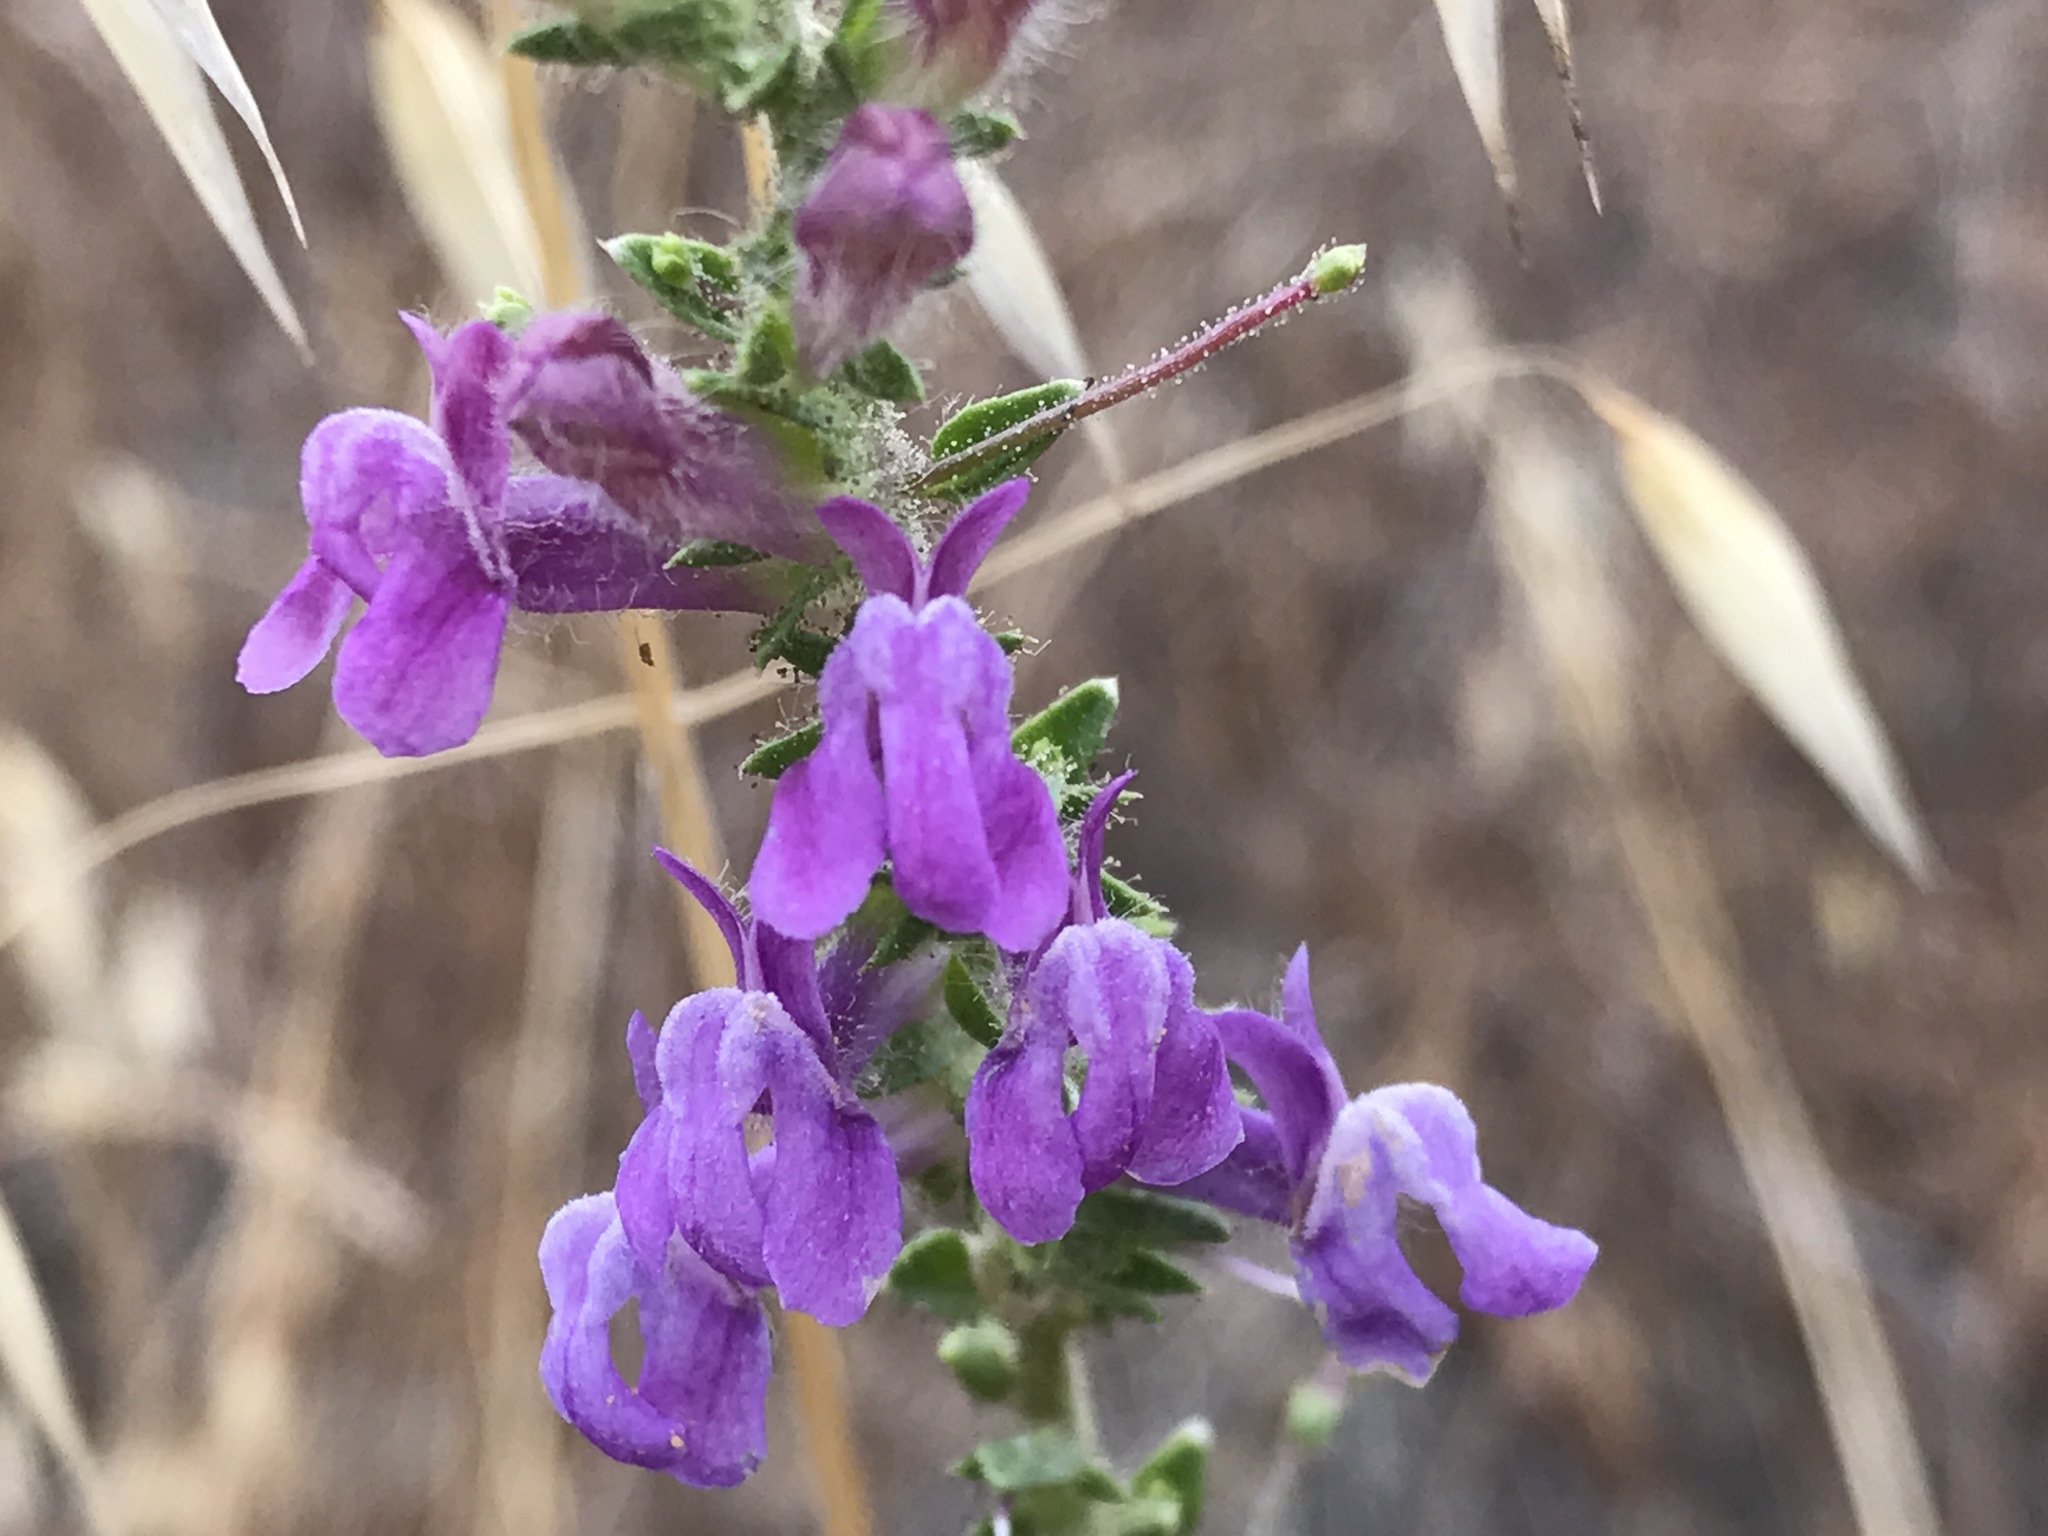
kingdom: Plantae
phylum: Tracheophyta
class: Magnoliopsida
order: Lamiales
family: Plantaginaceae
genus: Sairocarpus
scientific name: Sairocarpus vexillocalyculatus
